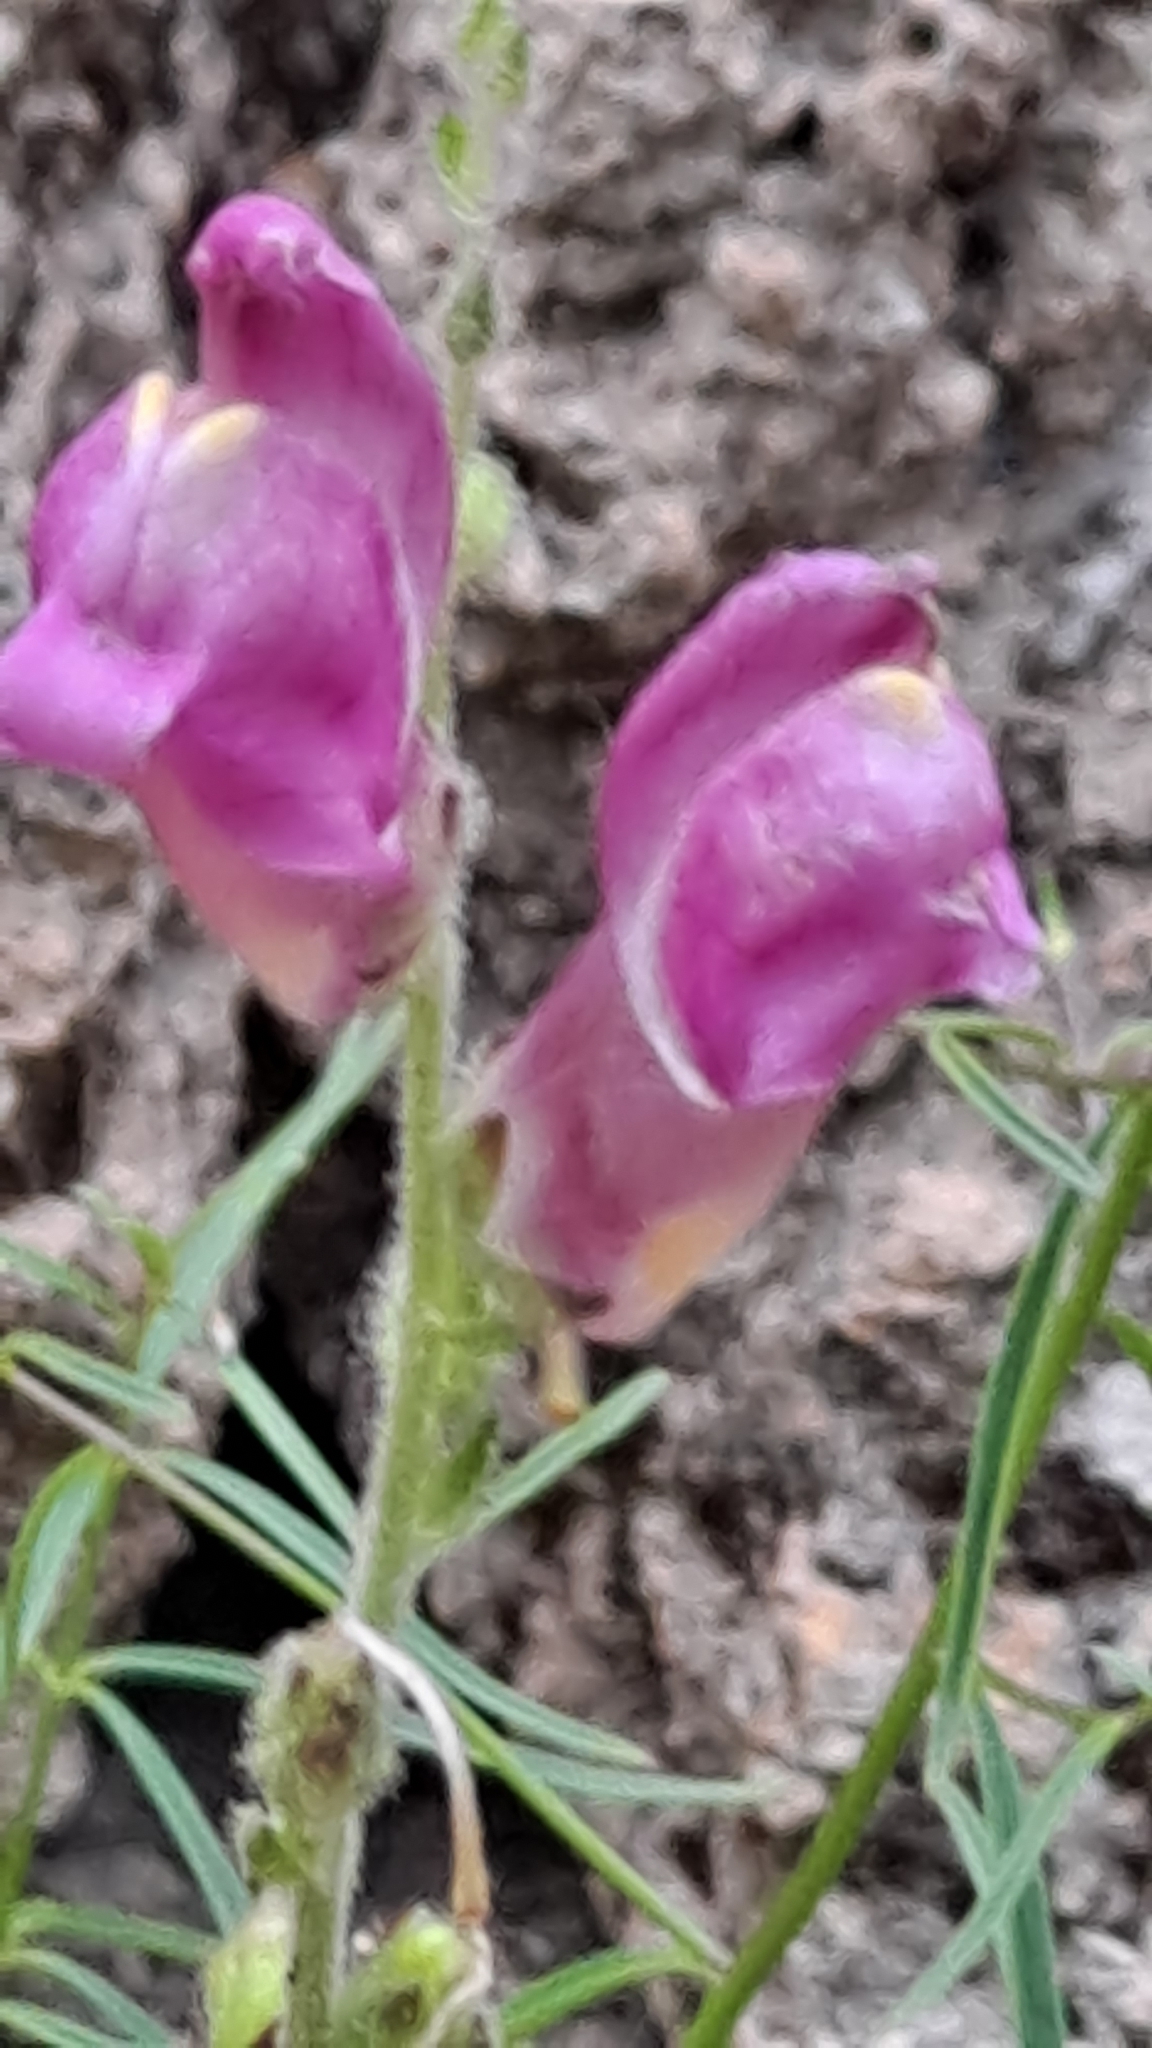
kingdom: Plantae
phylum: Tracheophyta
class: Magnoliopsida
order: Lamiales
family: Plantaginaceae
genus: Antirrhinum
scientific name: Antirrhinum litigiosum
